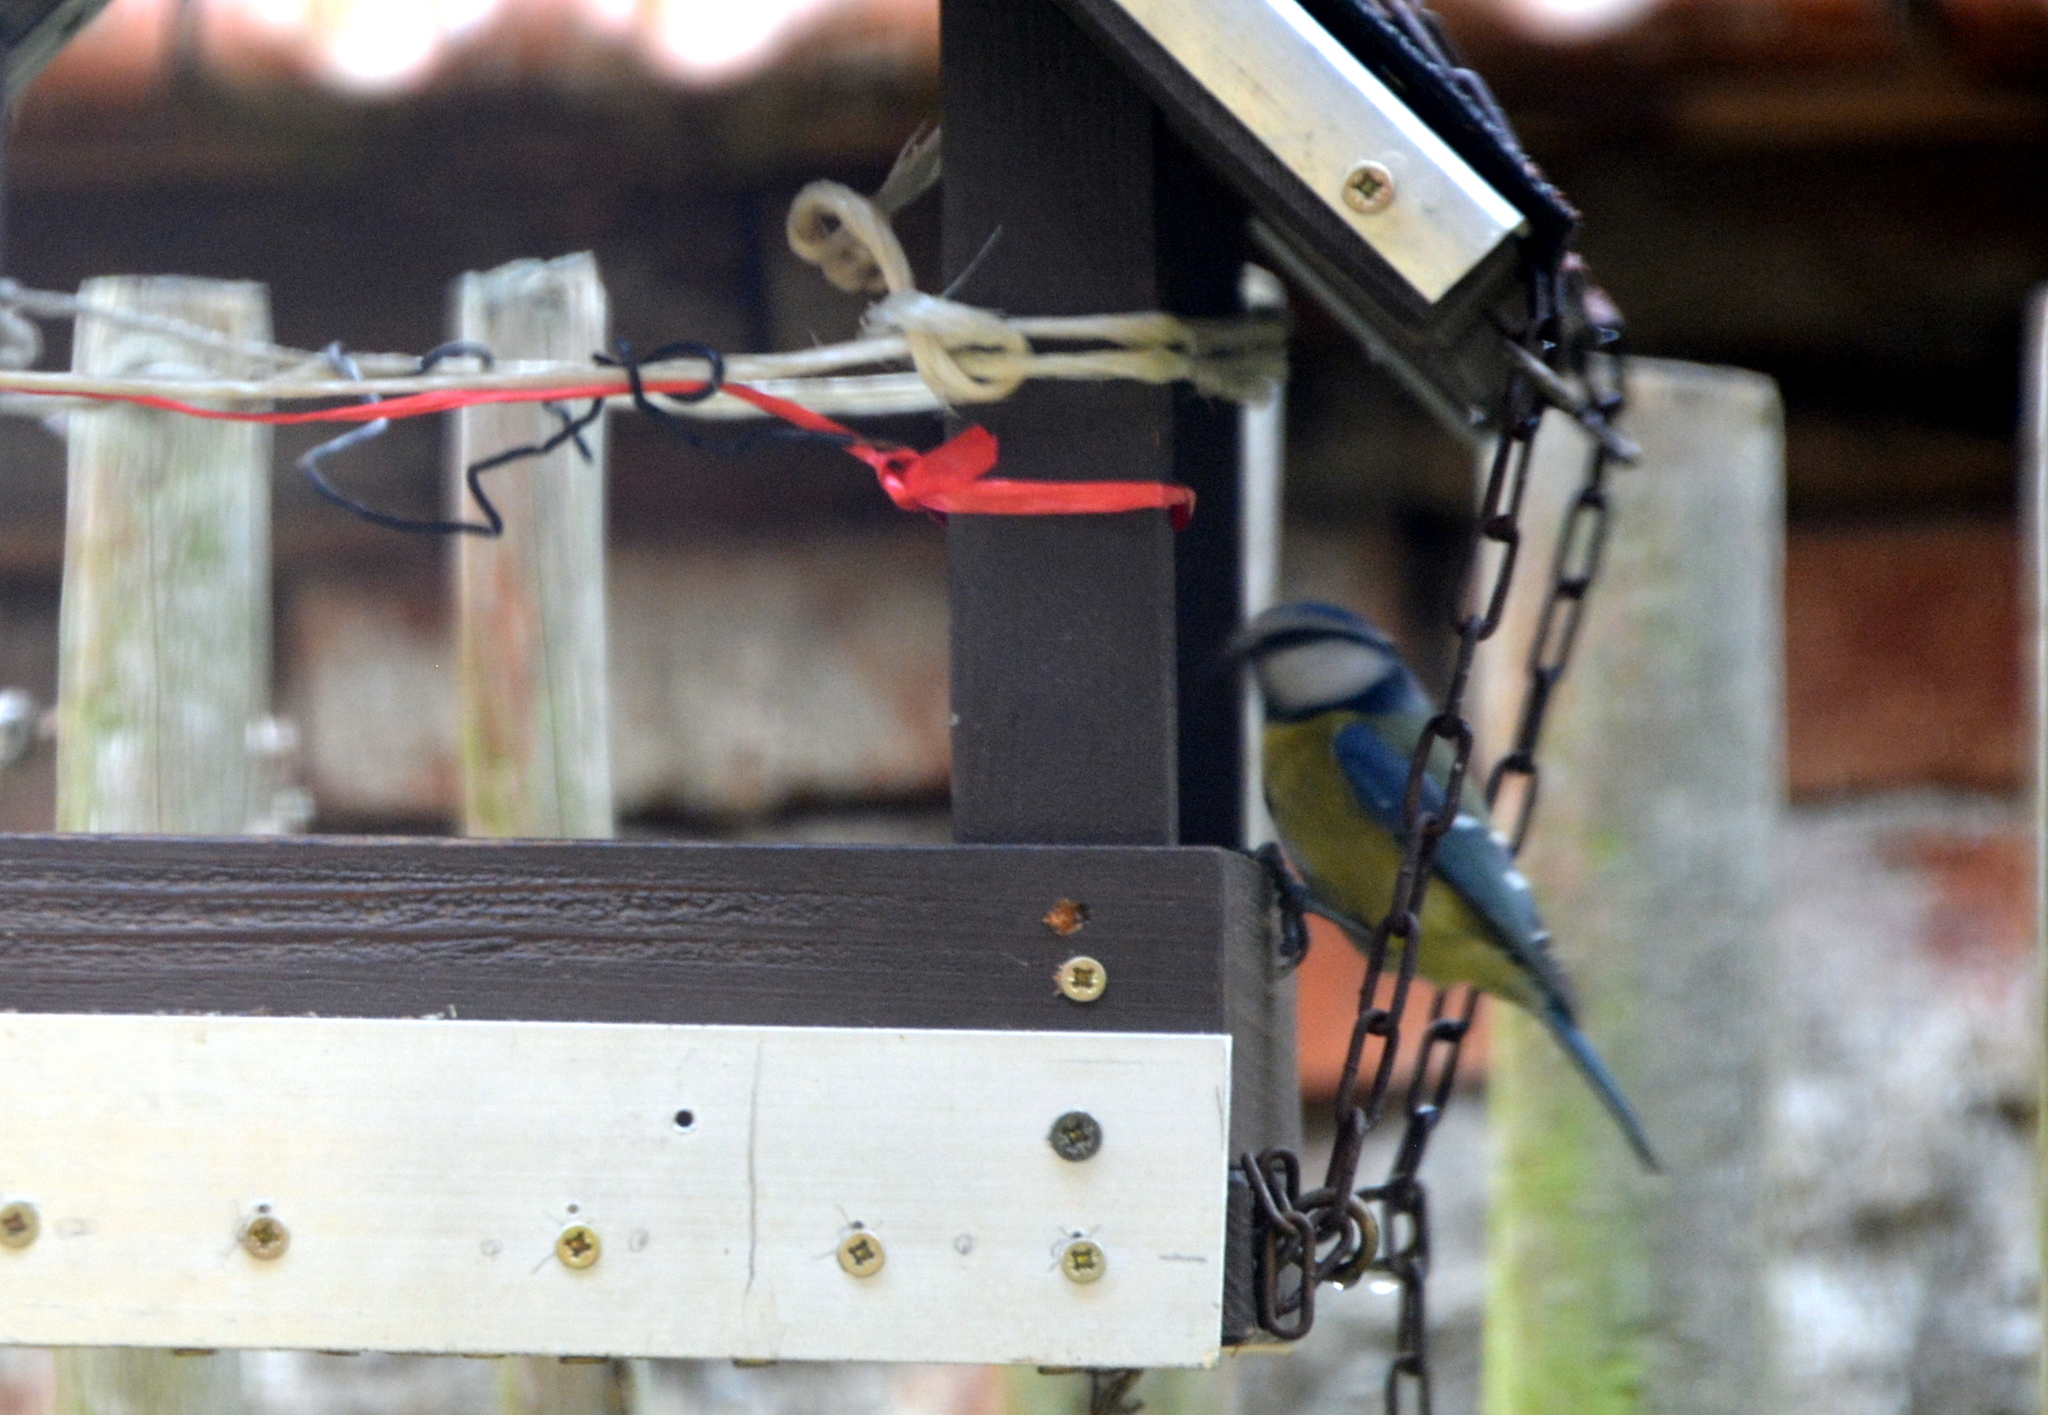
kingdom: Animalia
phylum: Chordata
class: Aves
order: Passeriformes
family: Paridae
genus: Cyanistes
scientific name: Cyanistes caeruleus
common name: Eurasian blue tit
